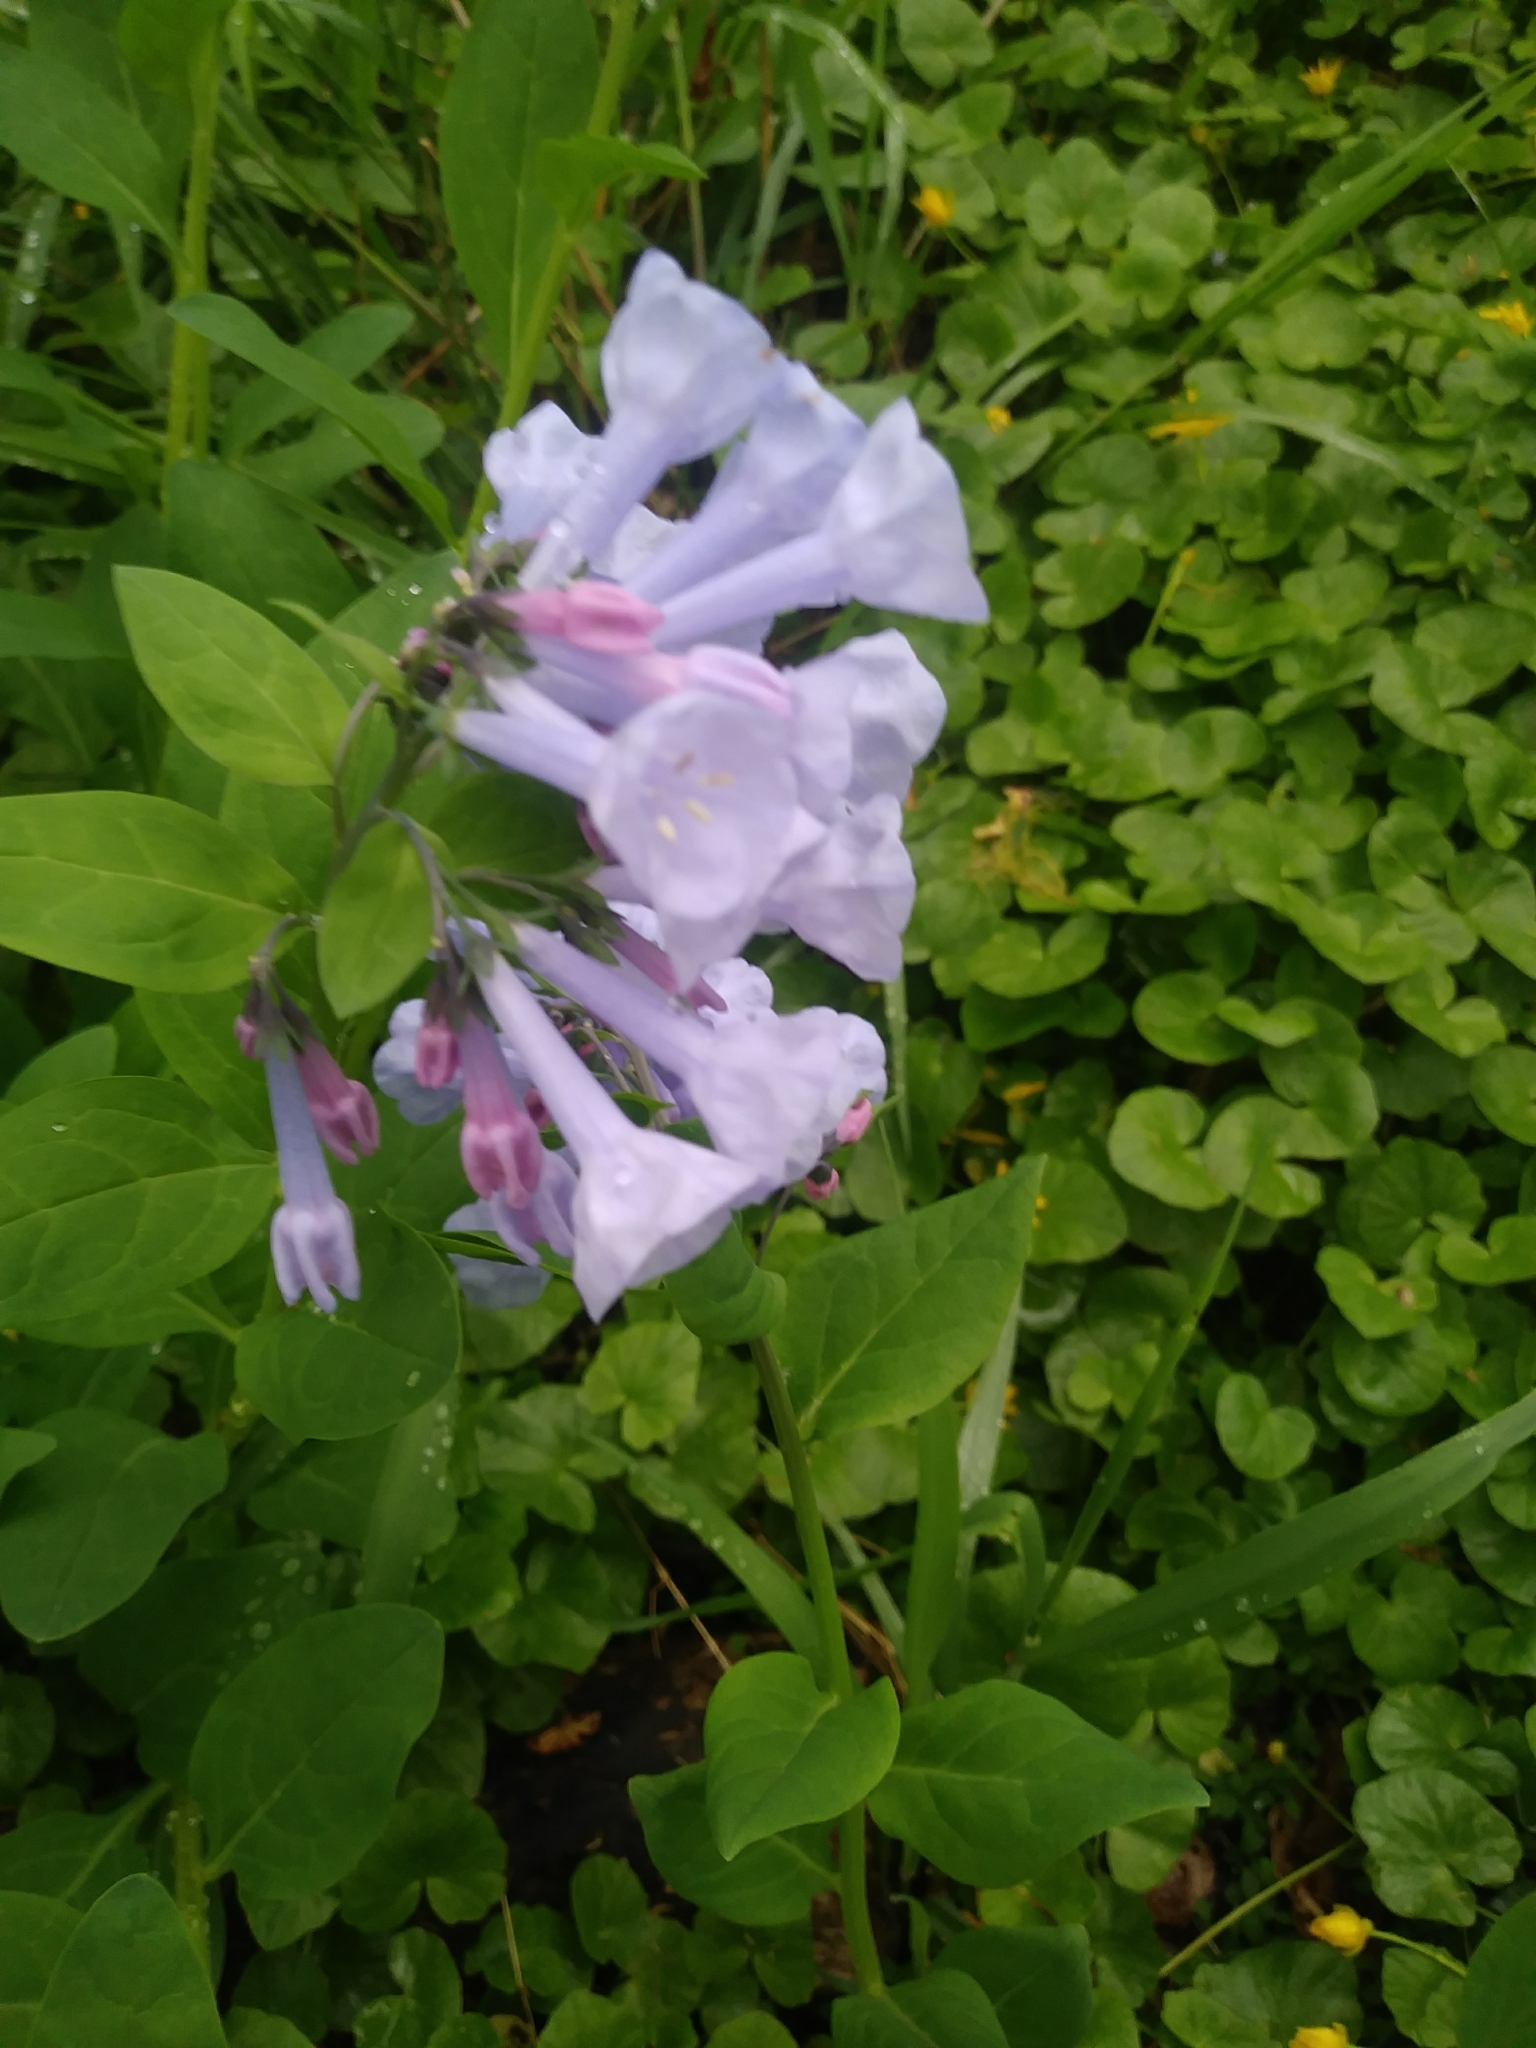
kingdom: Plantae
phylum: Tracheophyta
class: Magnoliopsida
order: Boraginales
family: Boraginaceae
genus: Mertensia
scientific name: Mertensia virginica
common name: Virginia bluebells
